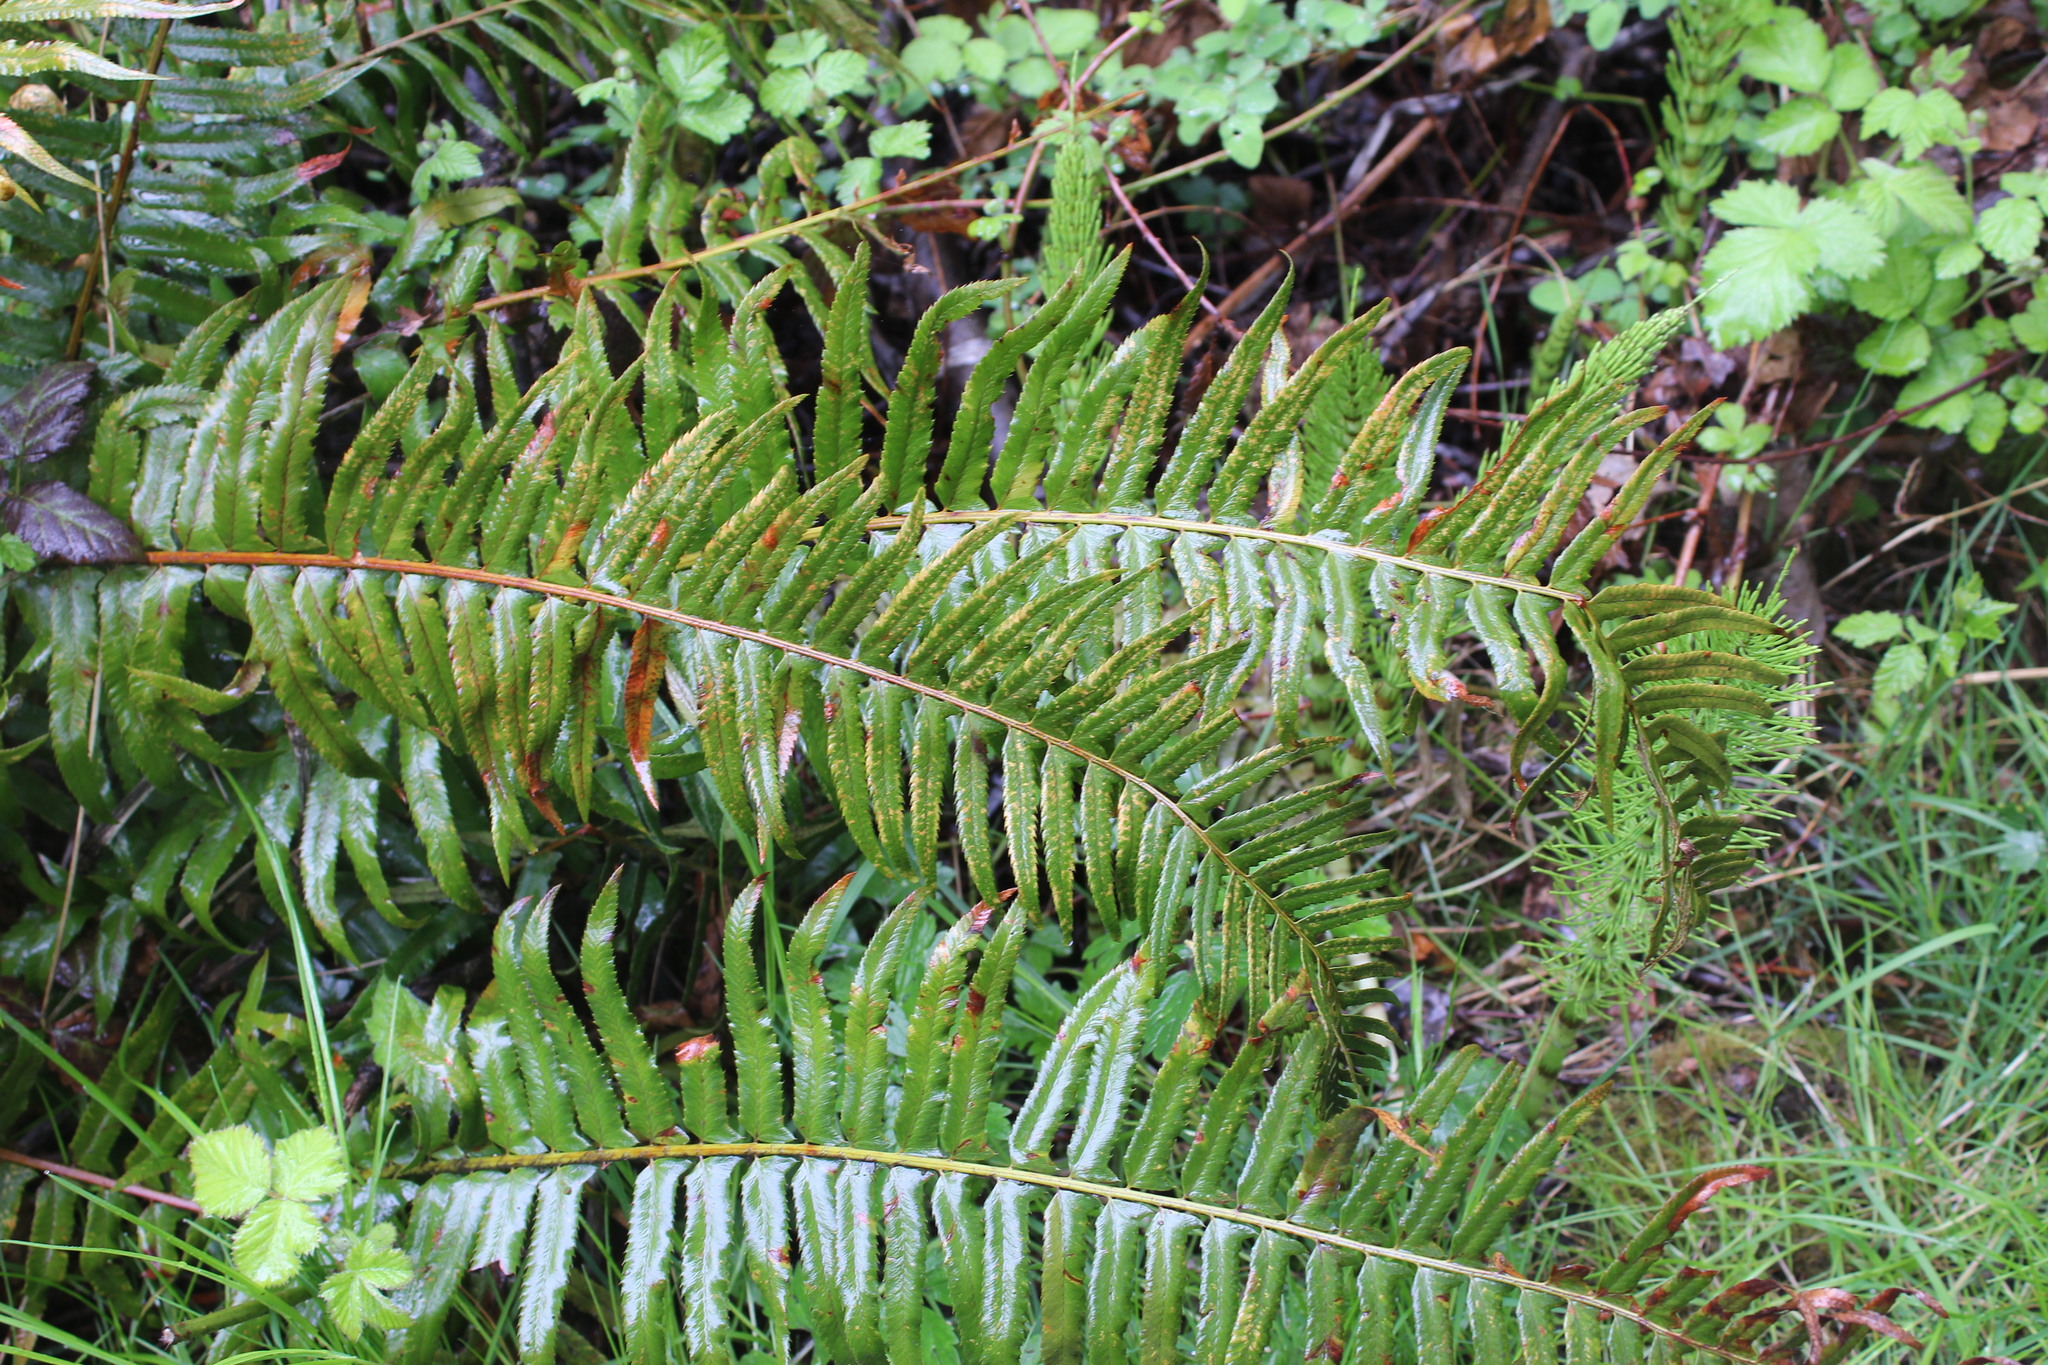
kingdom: Plantae
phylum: Tracheophyta
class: Polypodiopsida
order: Polypodiales
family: Dryopteridaceae
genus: Polystichum
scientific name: Polystichum munitum
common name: Western sword-fern
